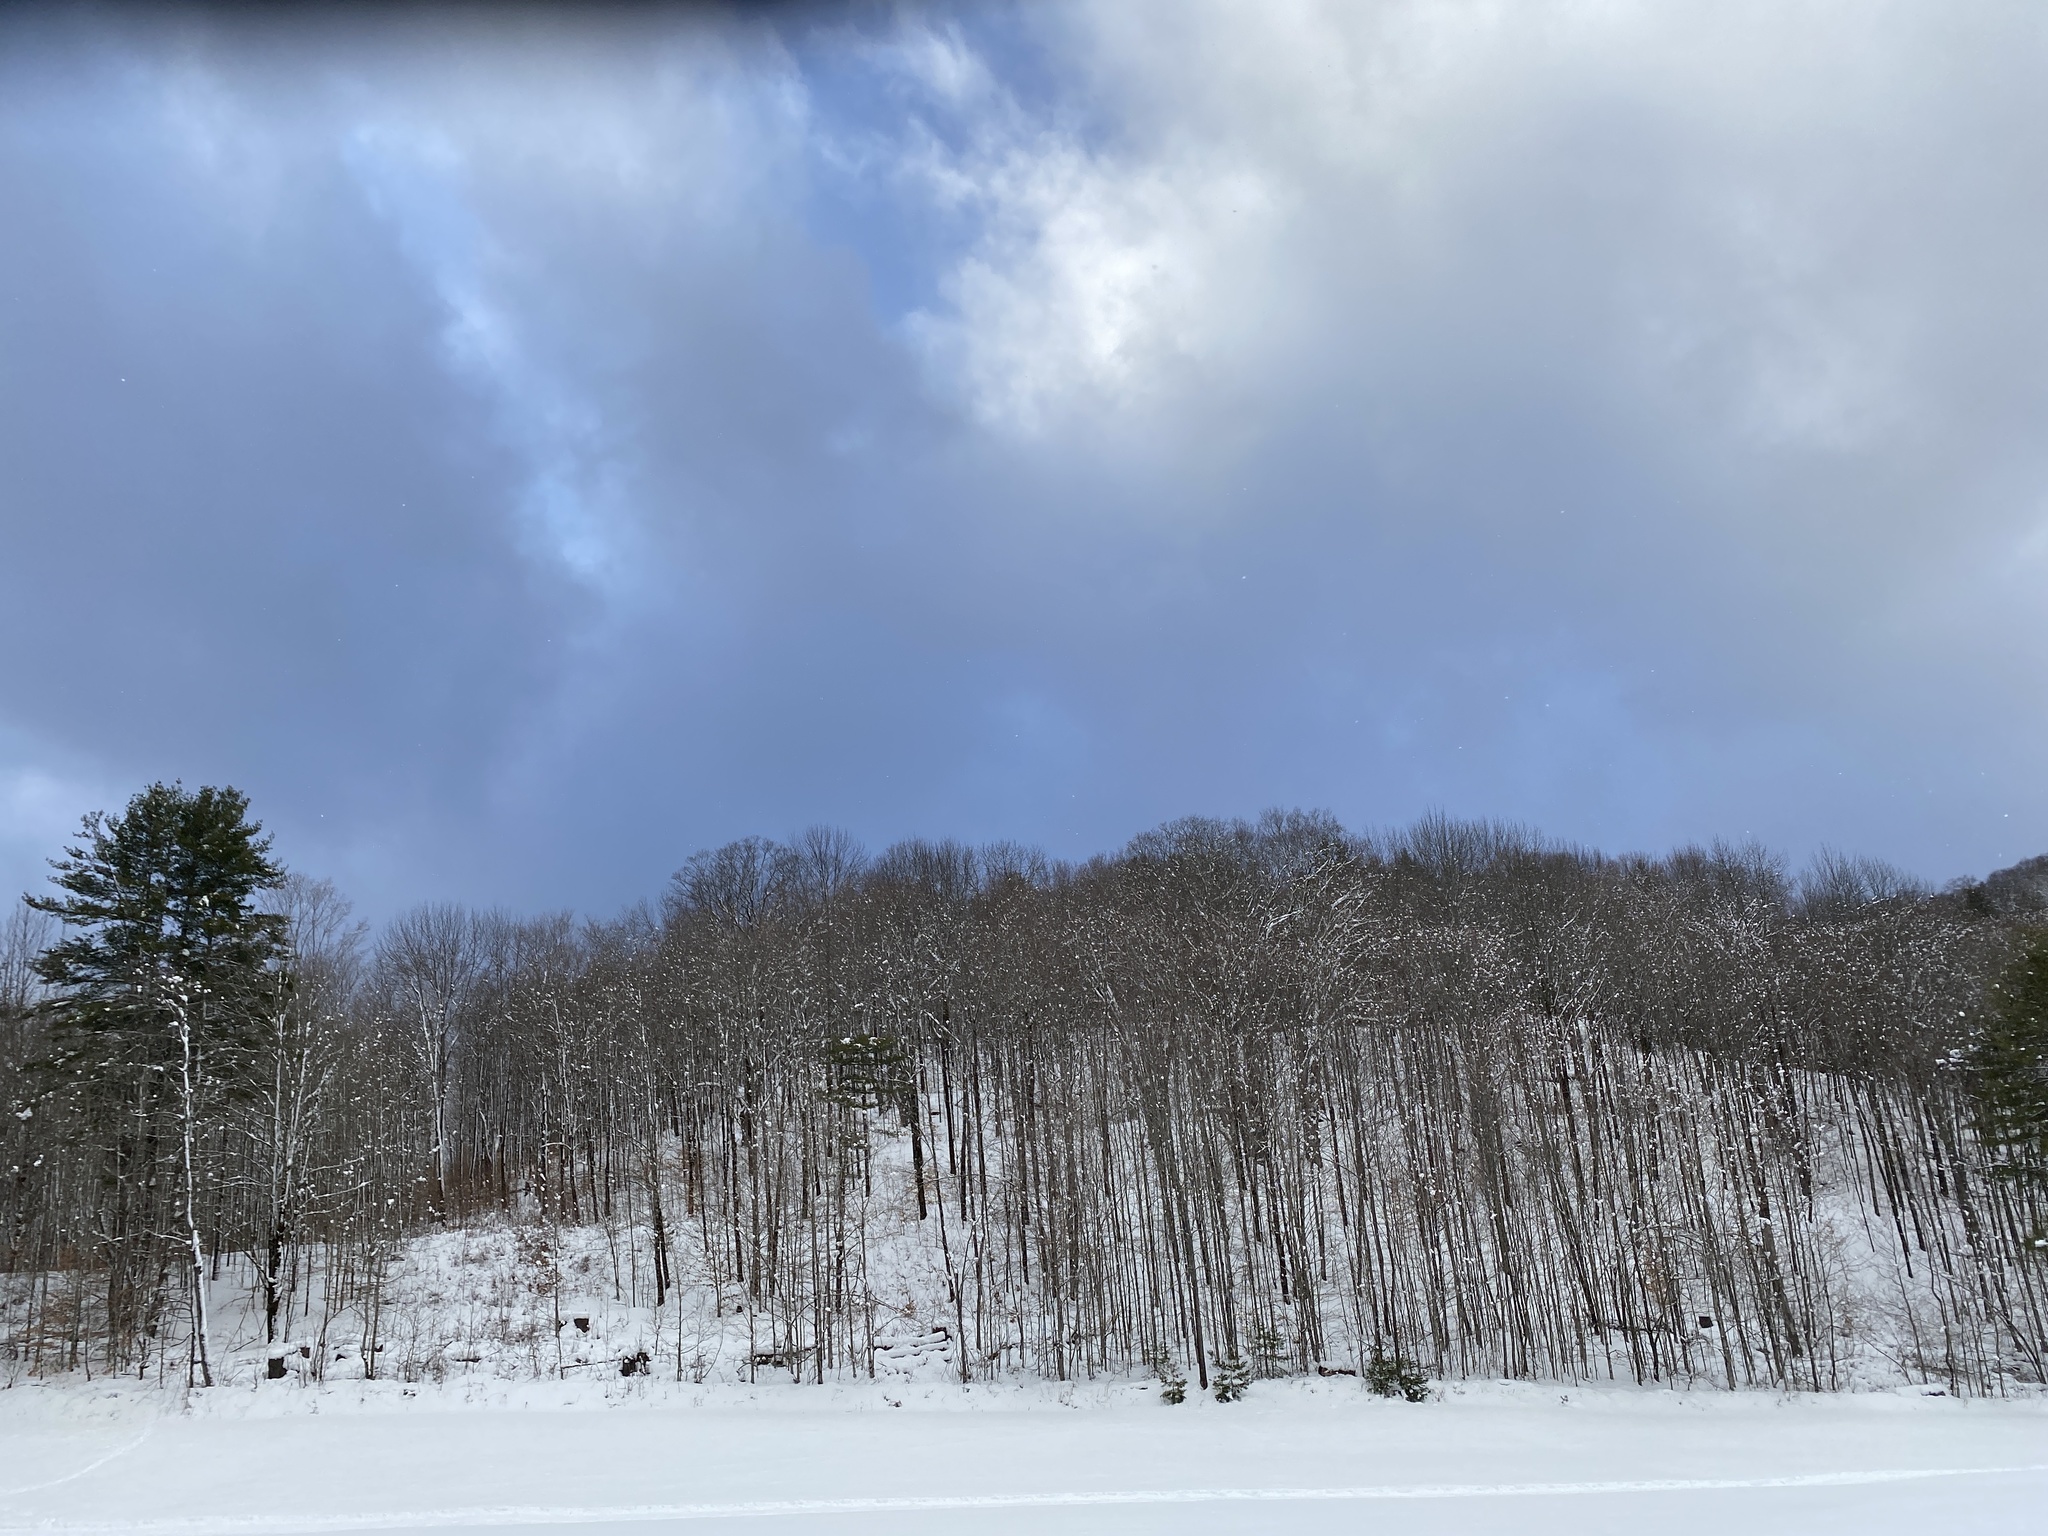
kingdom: Plantae
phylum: Tracheophyta
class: Pinopsida
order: Pinales
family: Pinaceae
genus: Pinus
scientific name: Pinus strobus
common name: Weymouth pine
